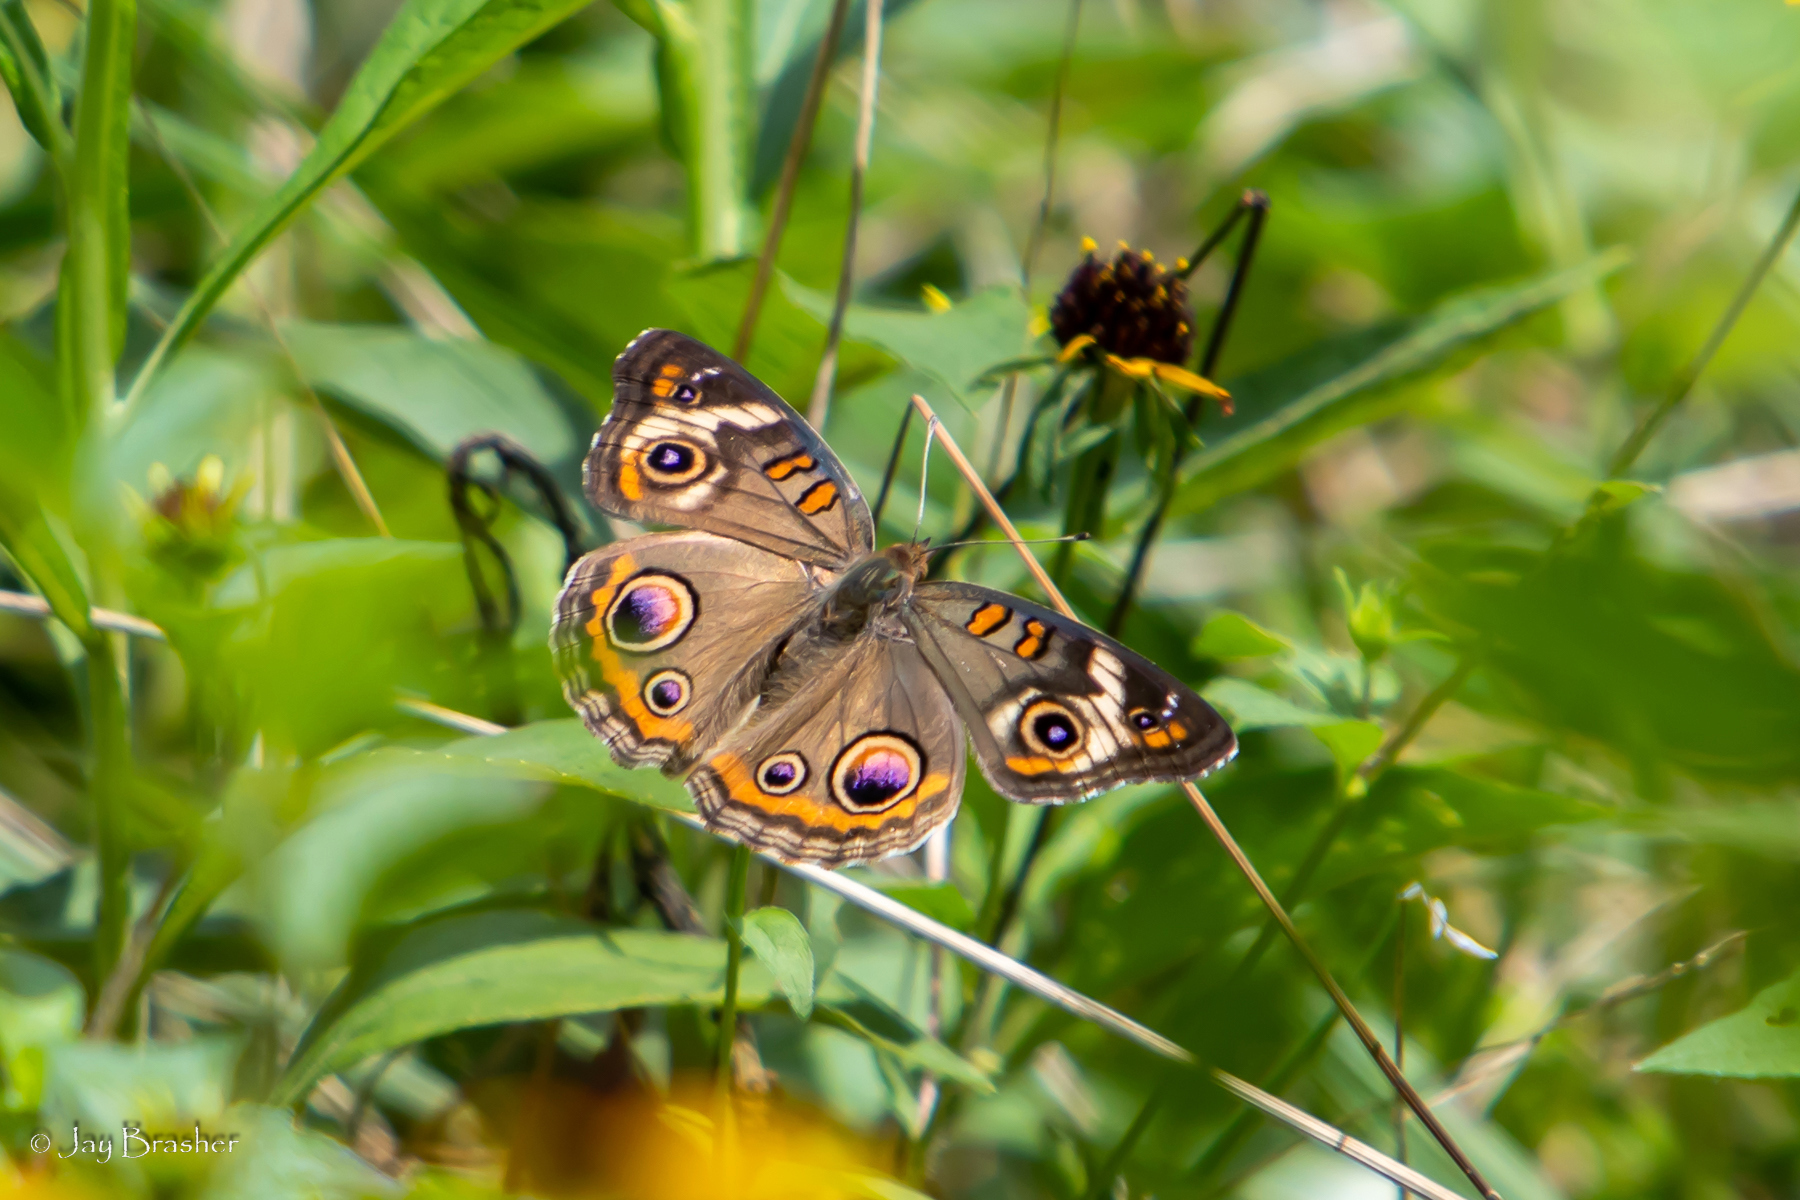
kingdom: Animalia
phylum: Arthropoda
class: Insecta
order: Lepidoptera
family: Nymphalidae
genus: Junonia
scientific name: Junonia coenia
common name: Common buckeye
